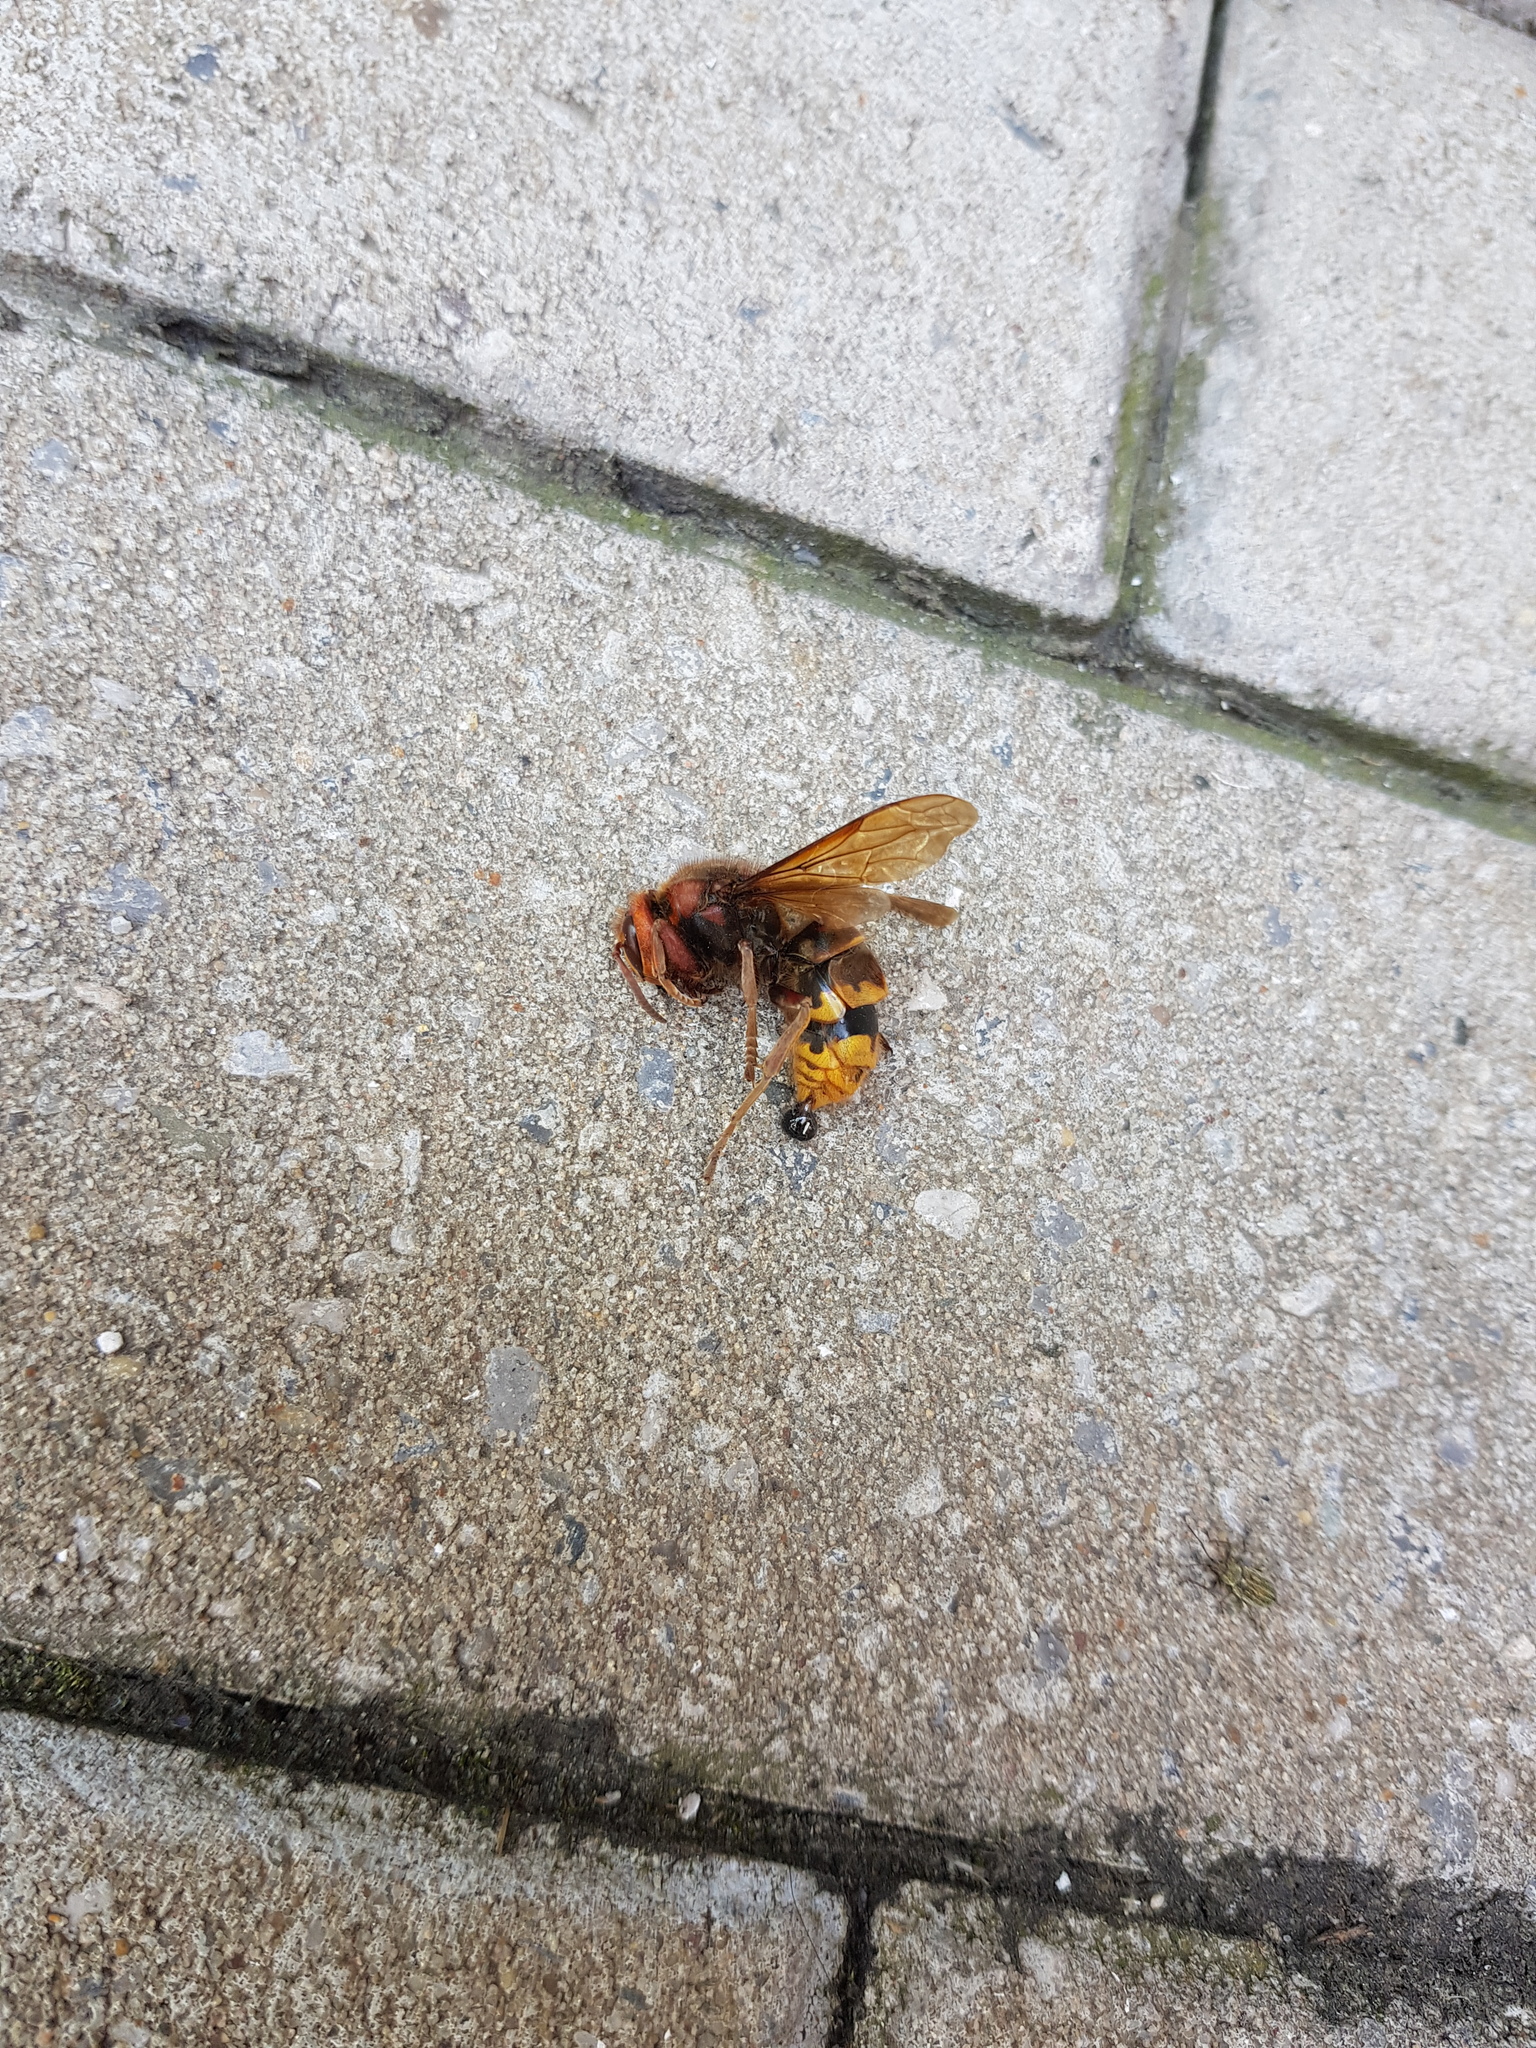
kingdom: Animalia
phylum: Arthropoda
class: Insecta
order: Hymenoptera
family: Vespidae
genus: Vespa
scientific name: Vespa crabro
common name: Hornet
